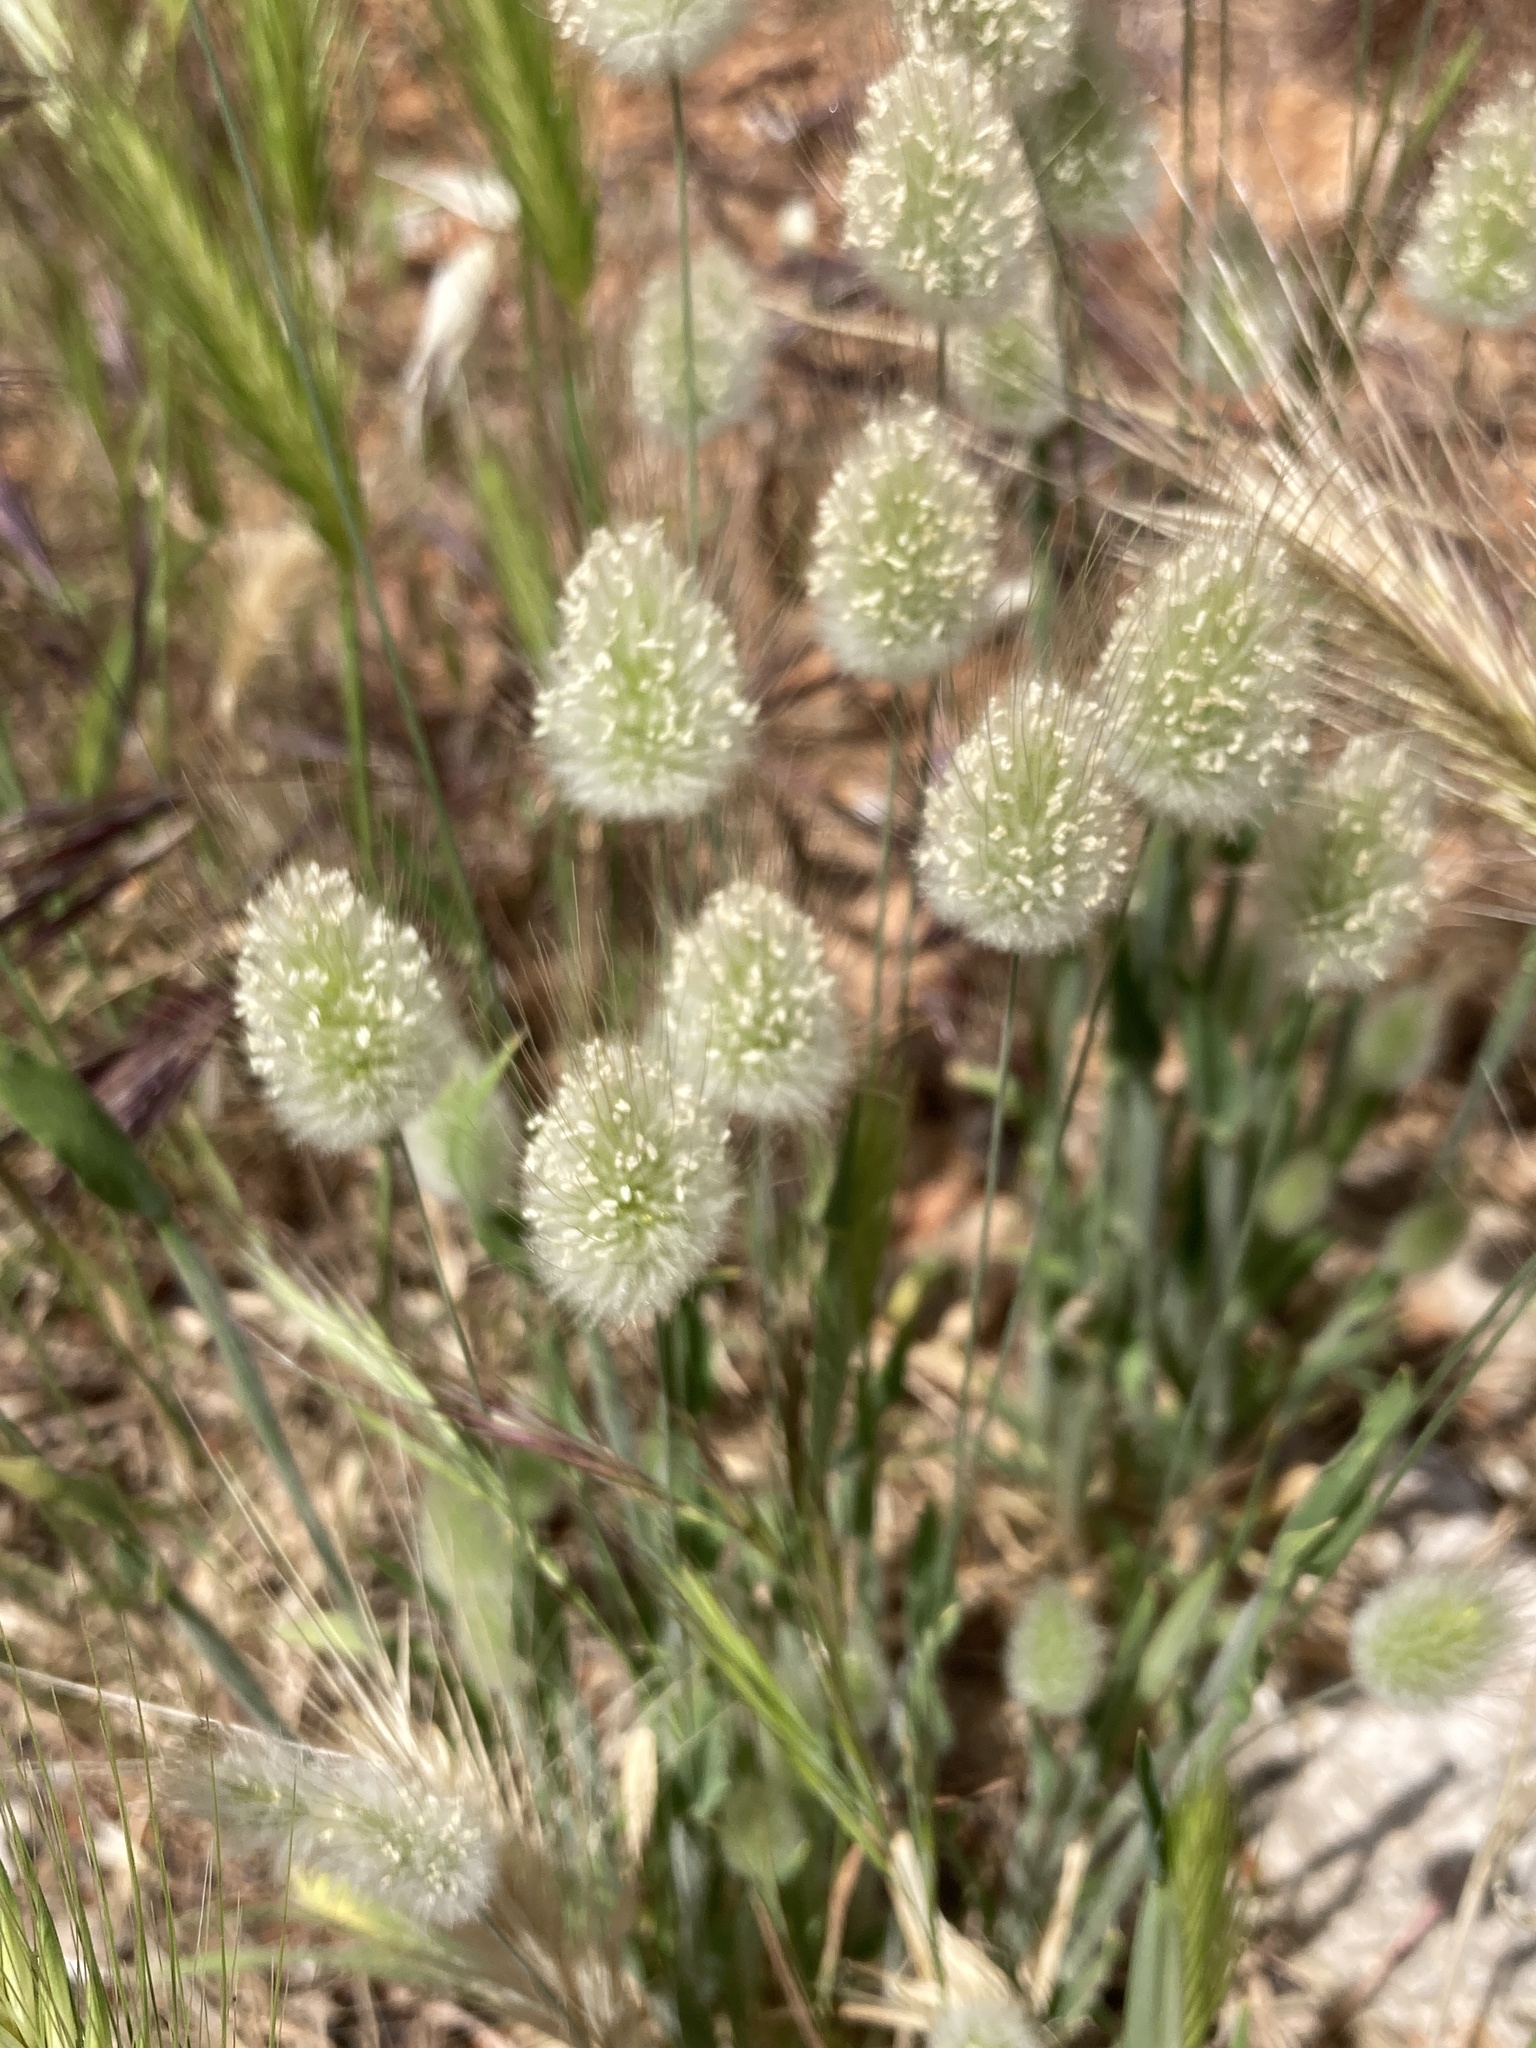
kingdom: Plantae
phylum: Tracheophyta
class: Liliopsida
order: Poales
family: Poaceae
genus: Lagurus
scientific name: Lagurus ovatus
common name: Hare's-tail
